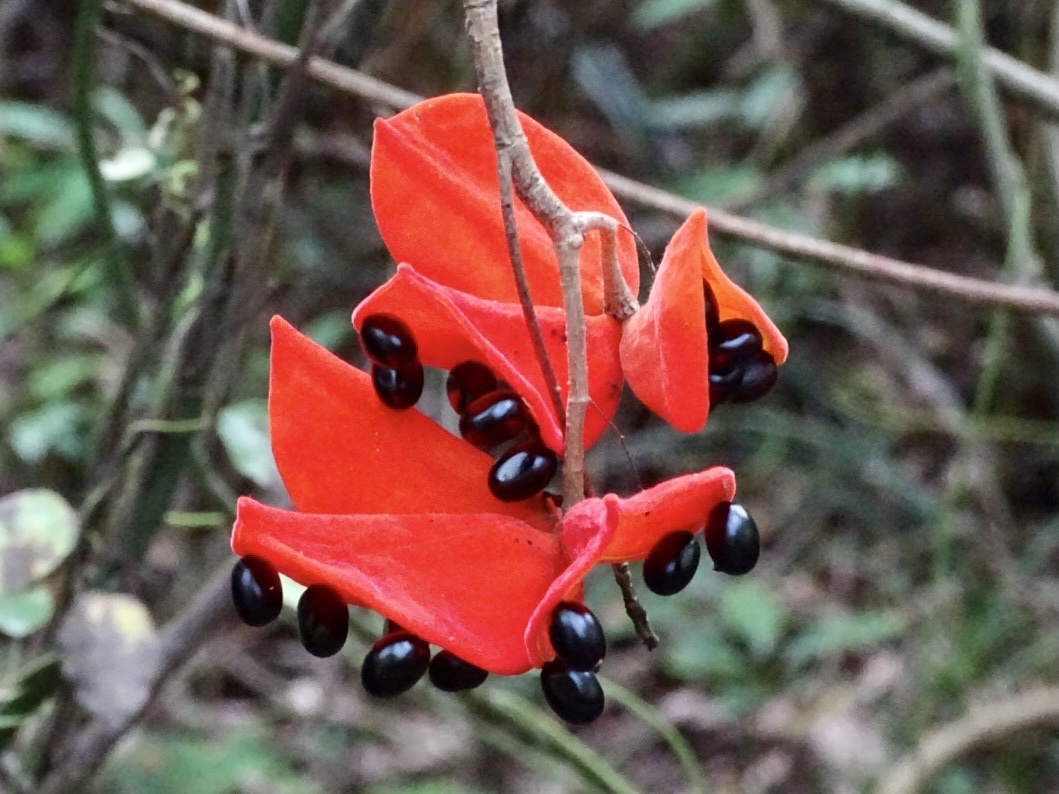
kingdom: Plantae
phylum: Tracheophyta
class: Magnoliopsida
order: Malvales
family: Malvaceae
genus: Sterculia
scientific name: Sterculia lanceolata
